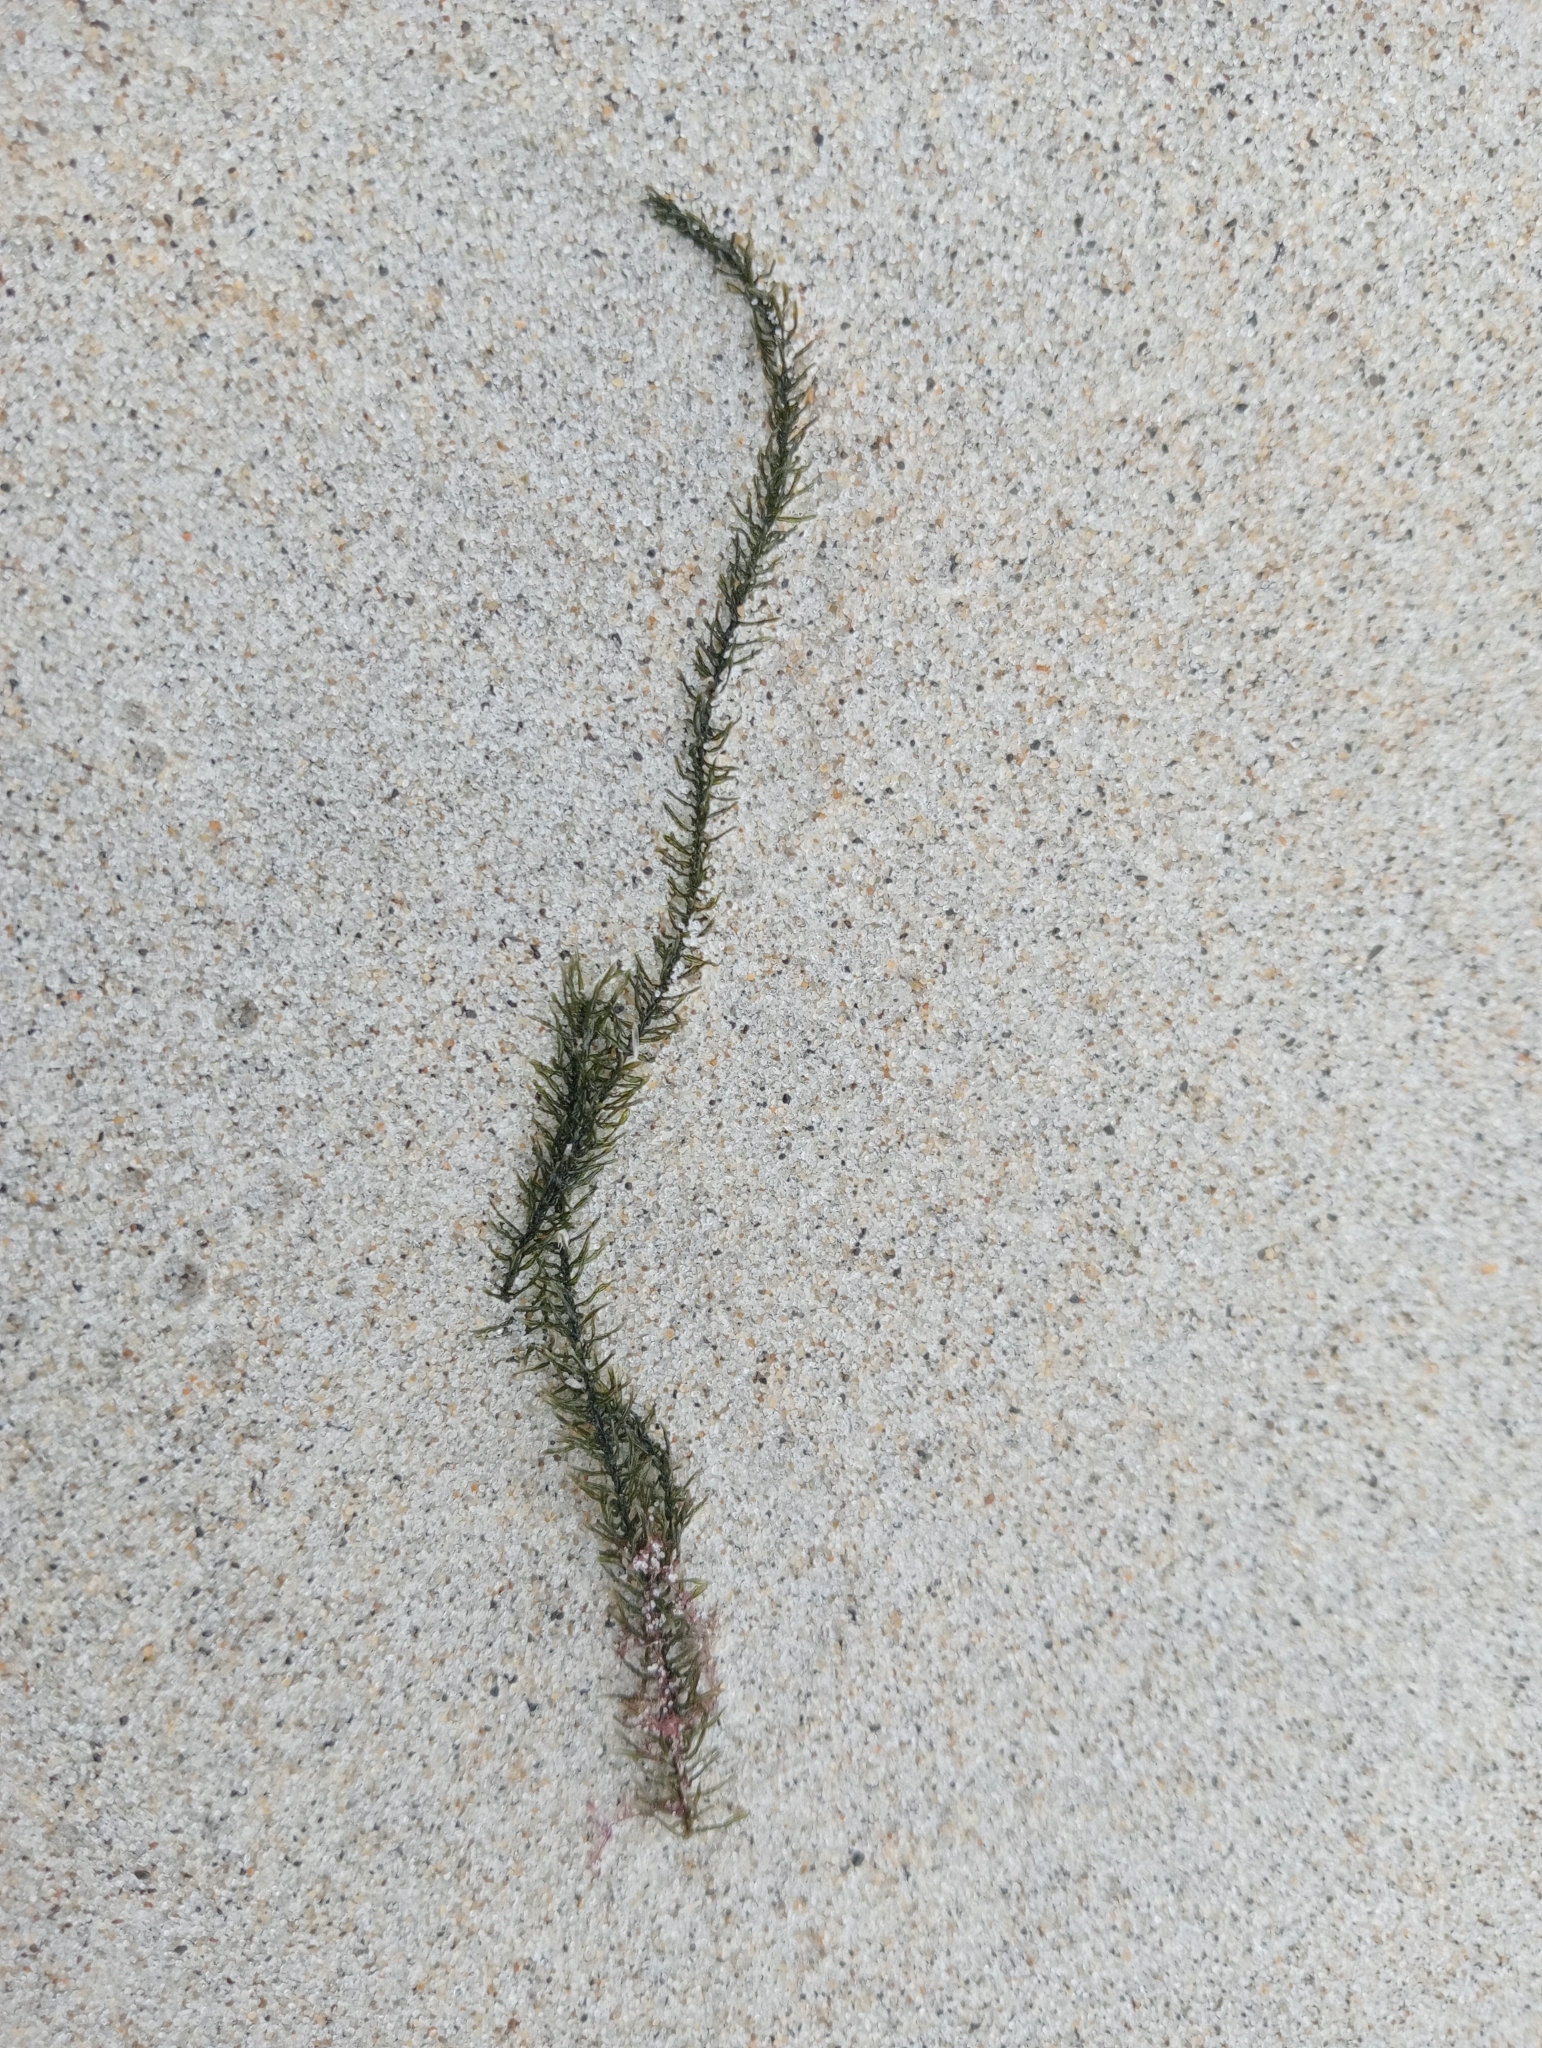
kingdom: Plantae
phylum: Chlorophyta
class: Ulvophyceae
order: Bryopsidales
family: Caulerpaceae
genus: Caulerpa
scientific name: Caulerpa brownii
